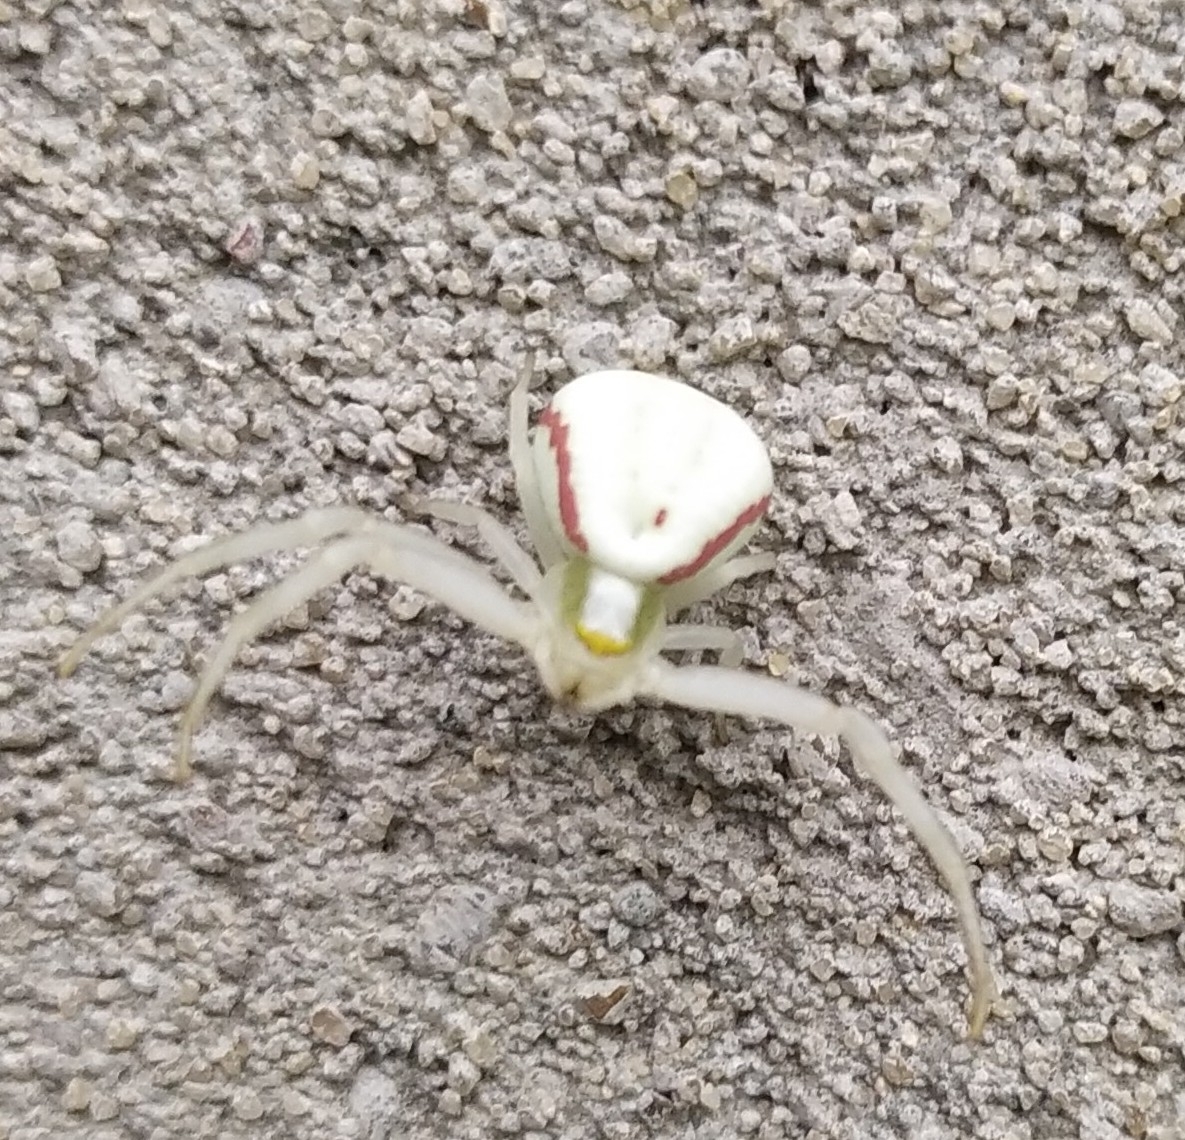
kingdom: Animalia
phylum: Arthropoda
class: Arachnida
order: Araneae
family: Thomisidae
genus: Misumena
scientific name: Misumena vatia
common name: Goldenrod crab spider
